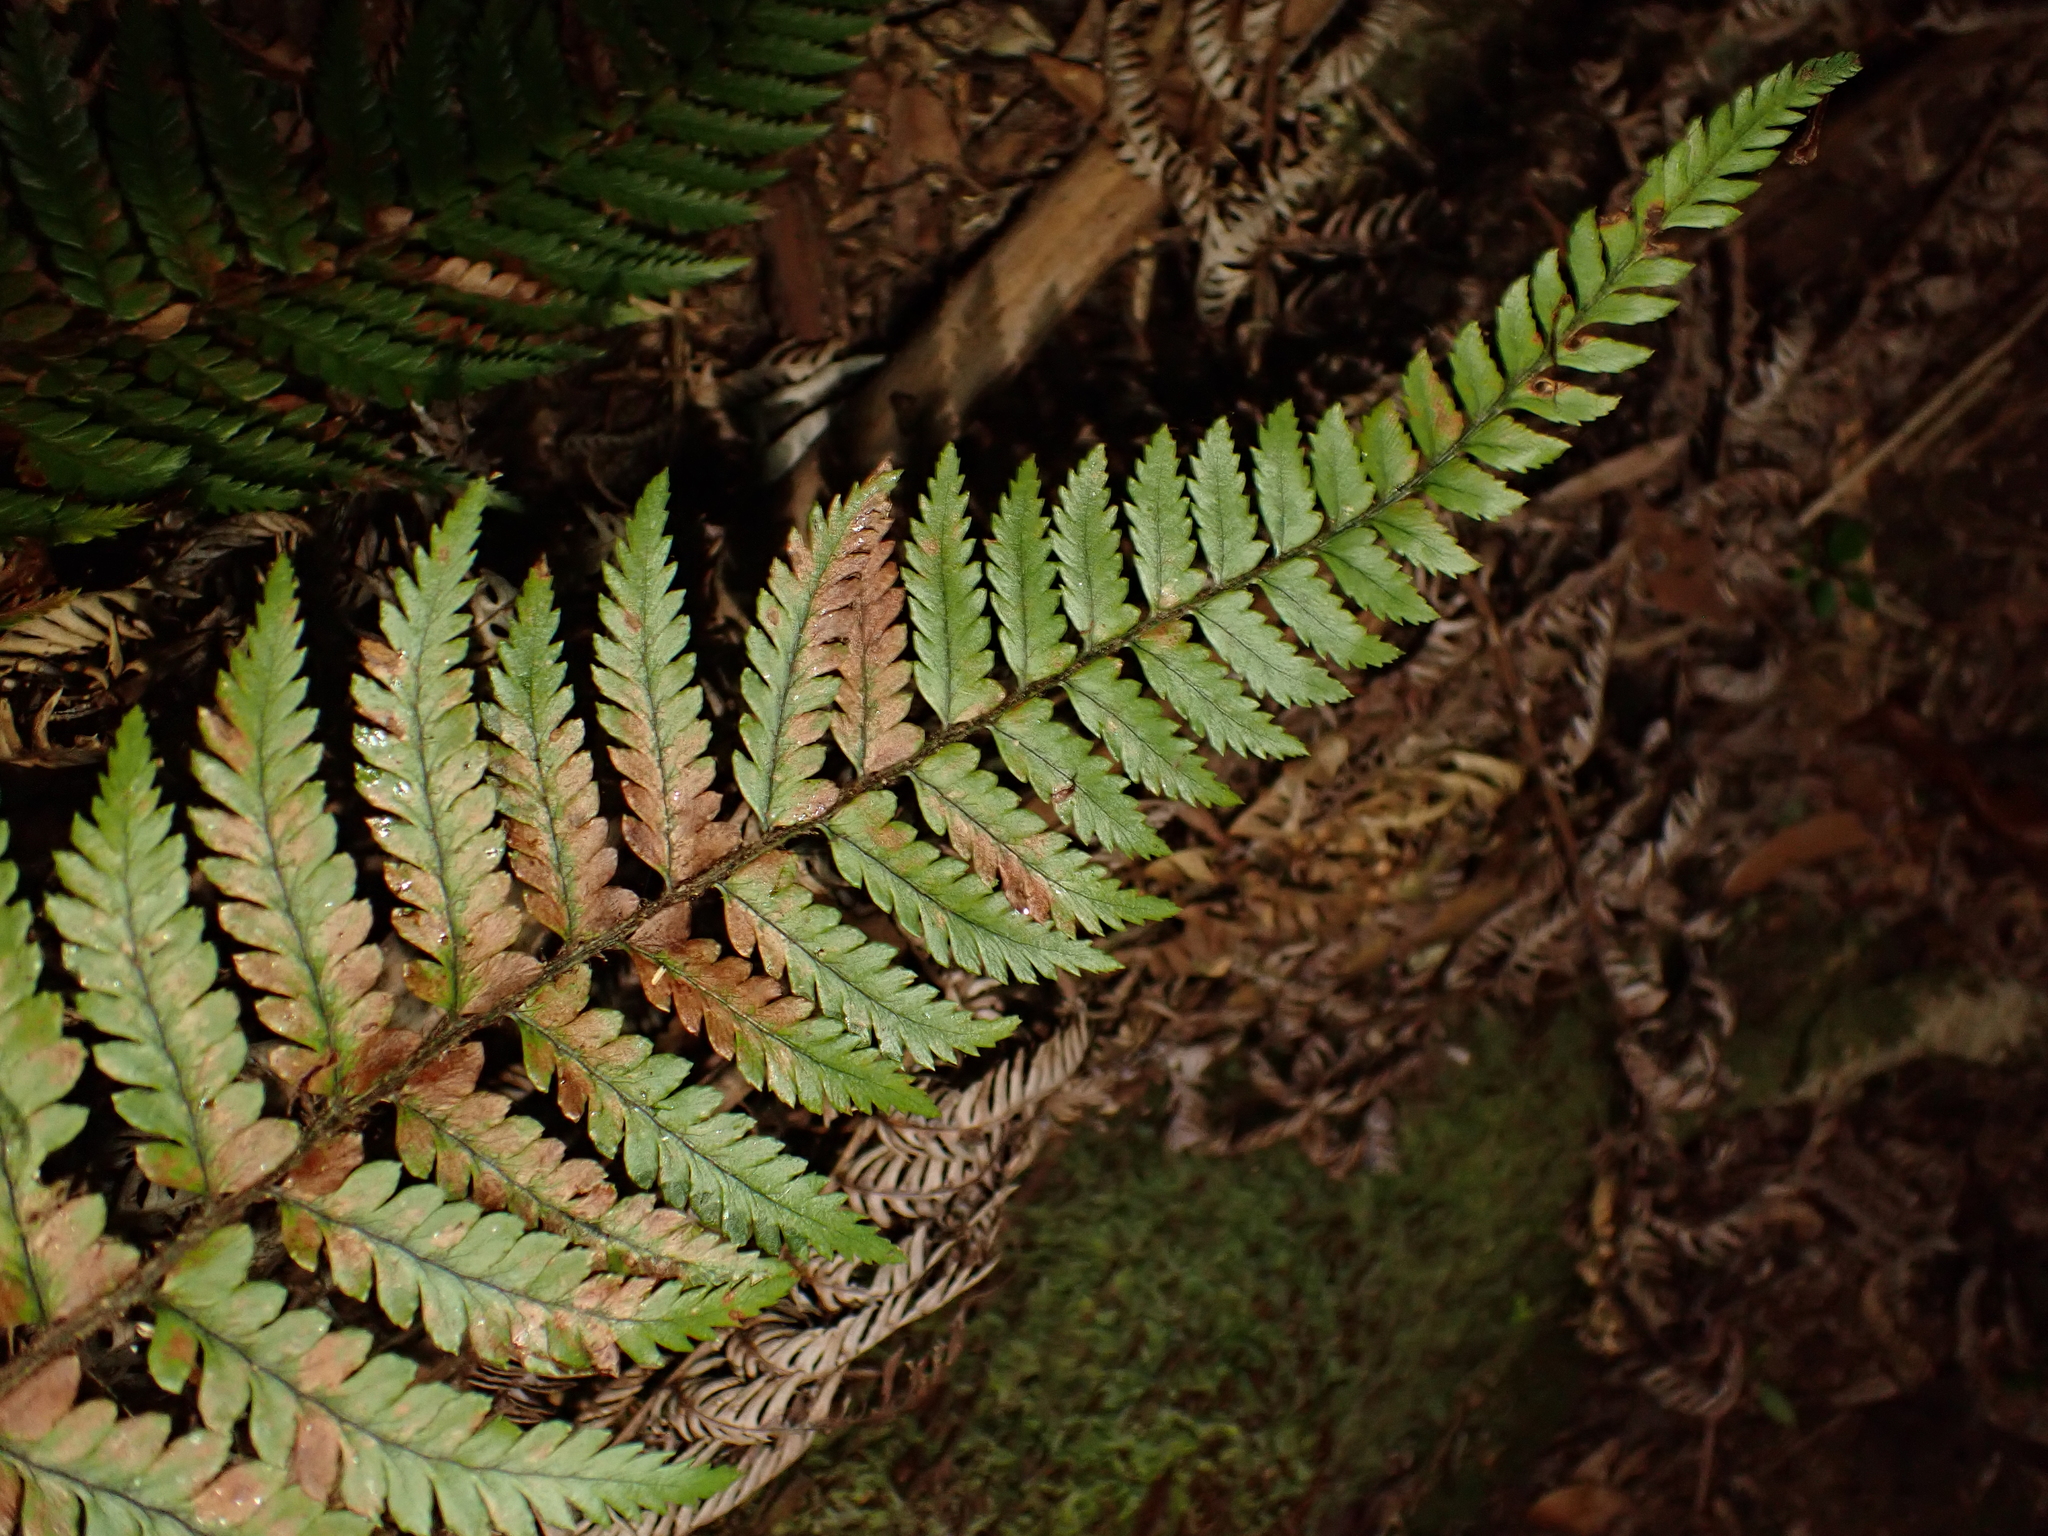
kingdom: Plantae
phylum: Tracheophyta
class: Polypodiopsida
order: Cyatheales
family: Dicksoniaceae
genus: Dicksonia
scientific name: Dicksonia fibrosa
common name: Golden tree fern
